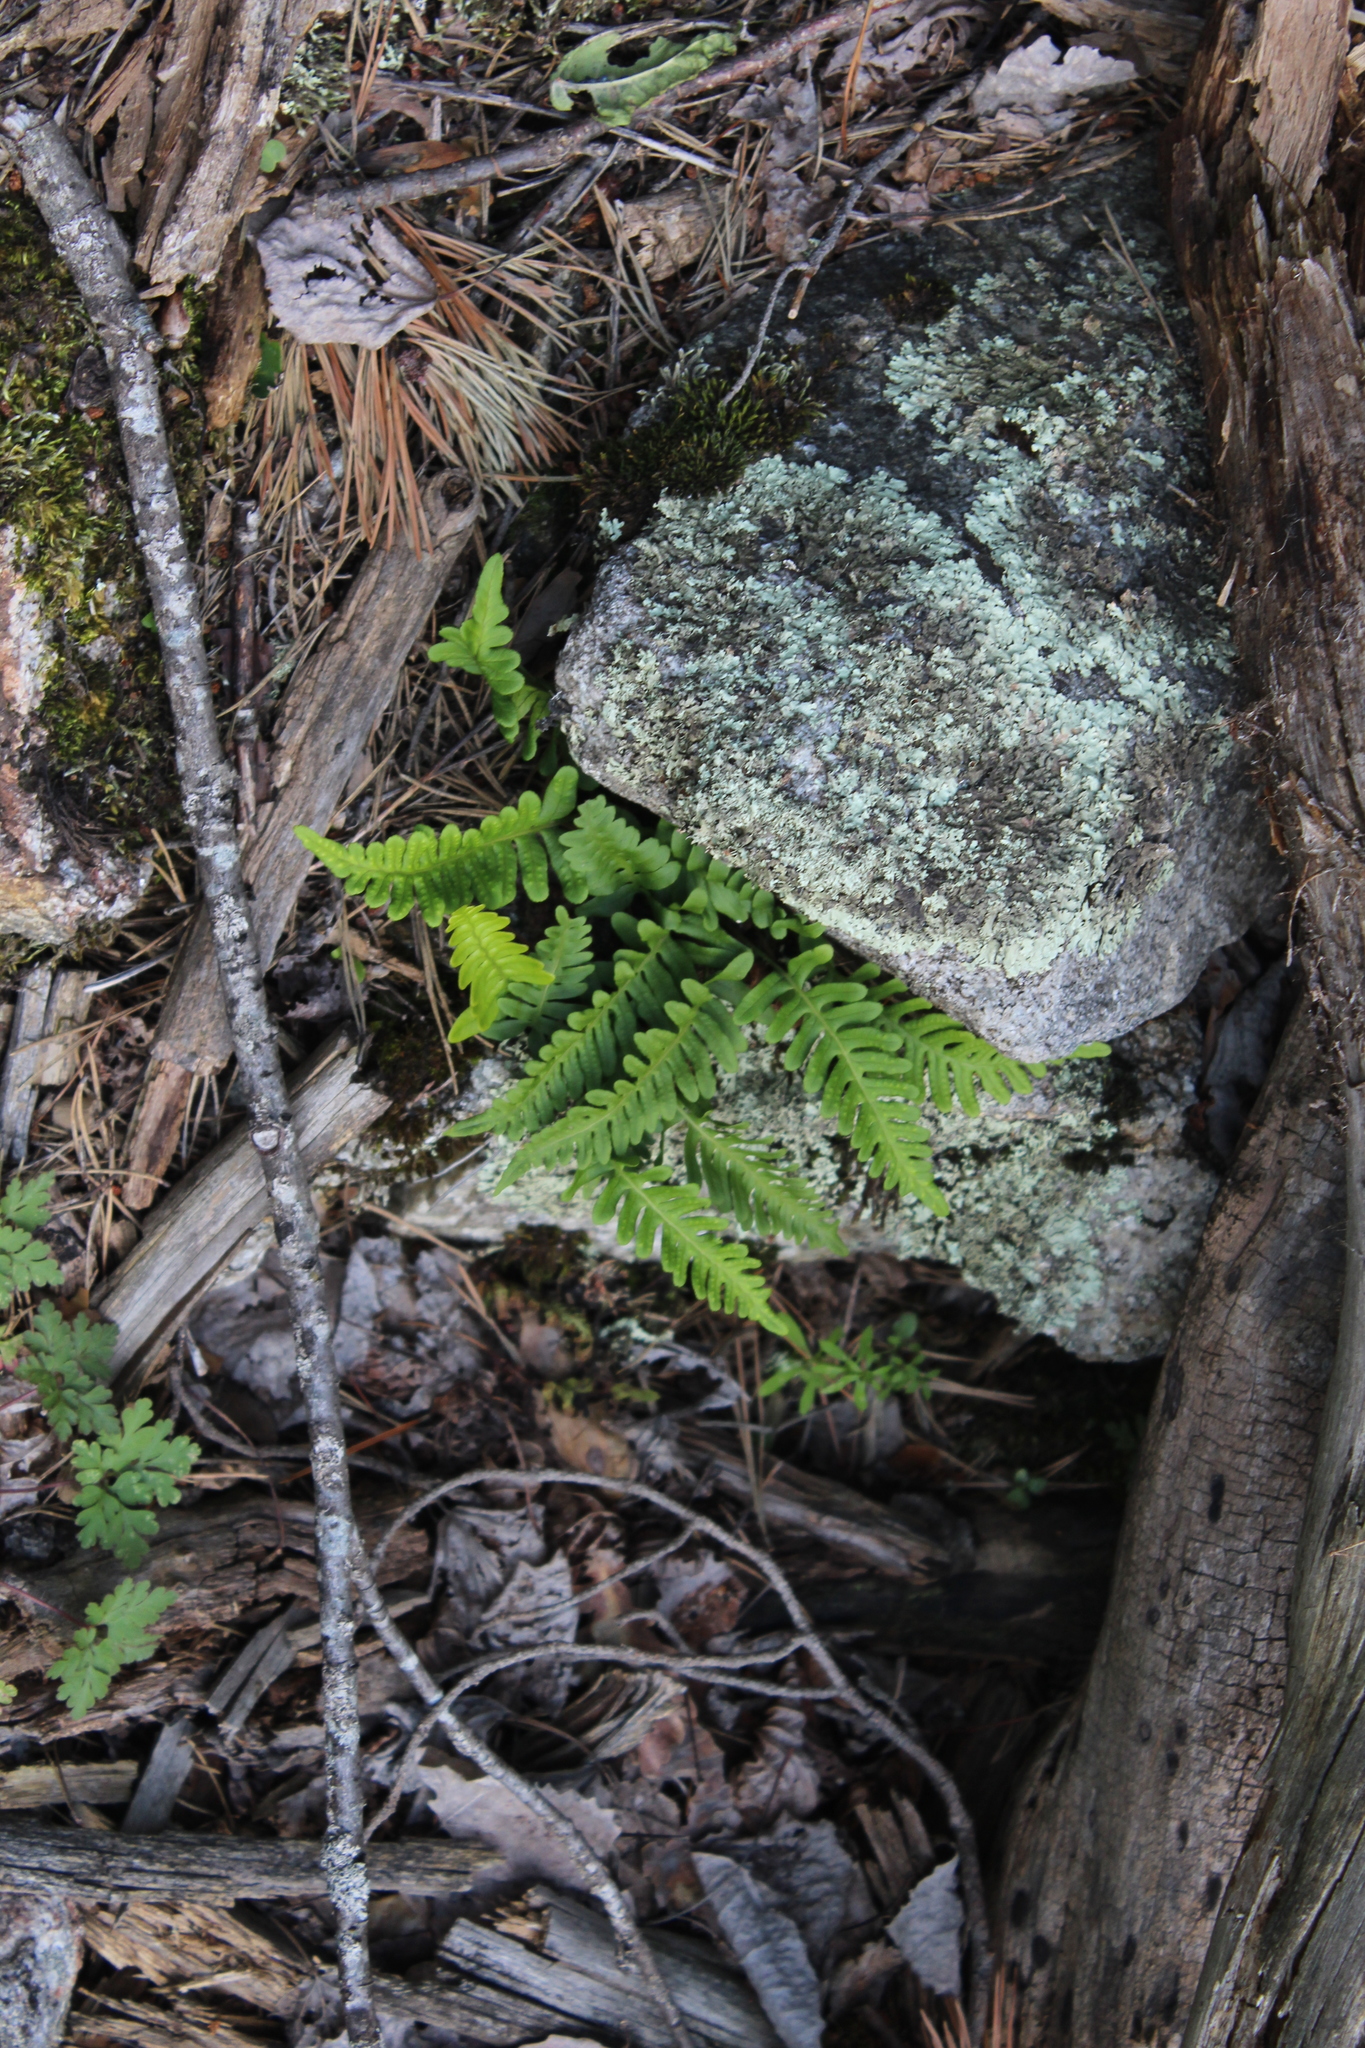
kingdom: Plantae
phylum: Tracheophyta
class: Polypodiopsida
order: Polypodiales
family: Polypodiaceae
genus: Polypodium
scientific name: Polypodium vulgare
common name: Common polypody
